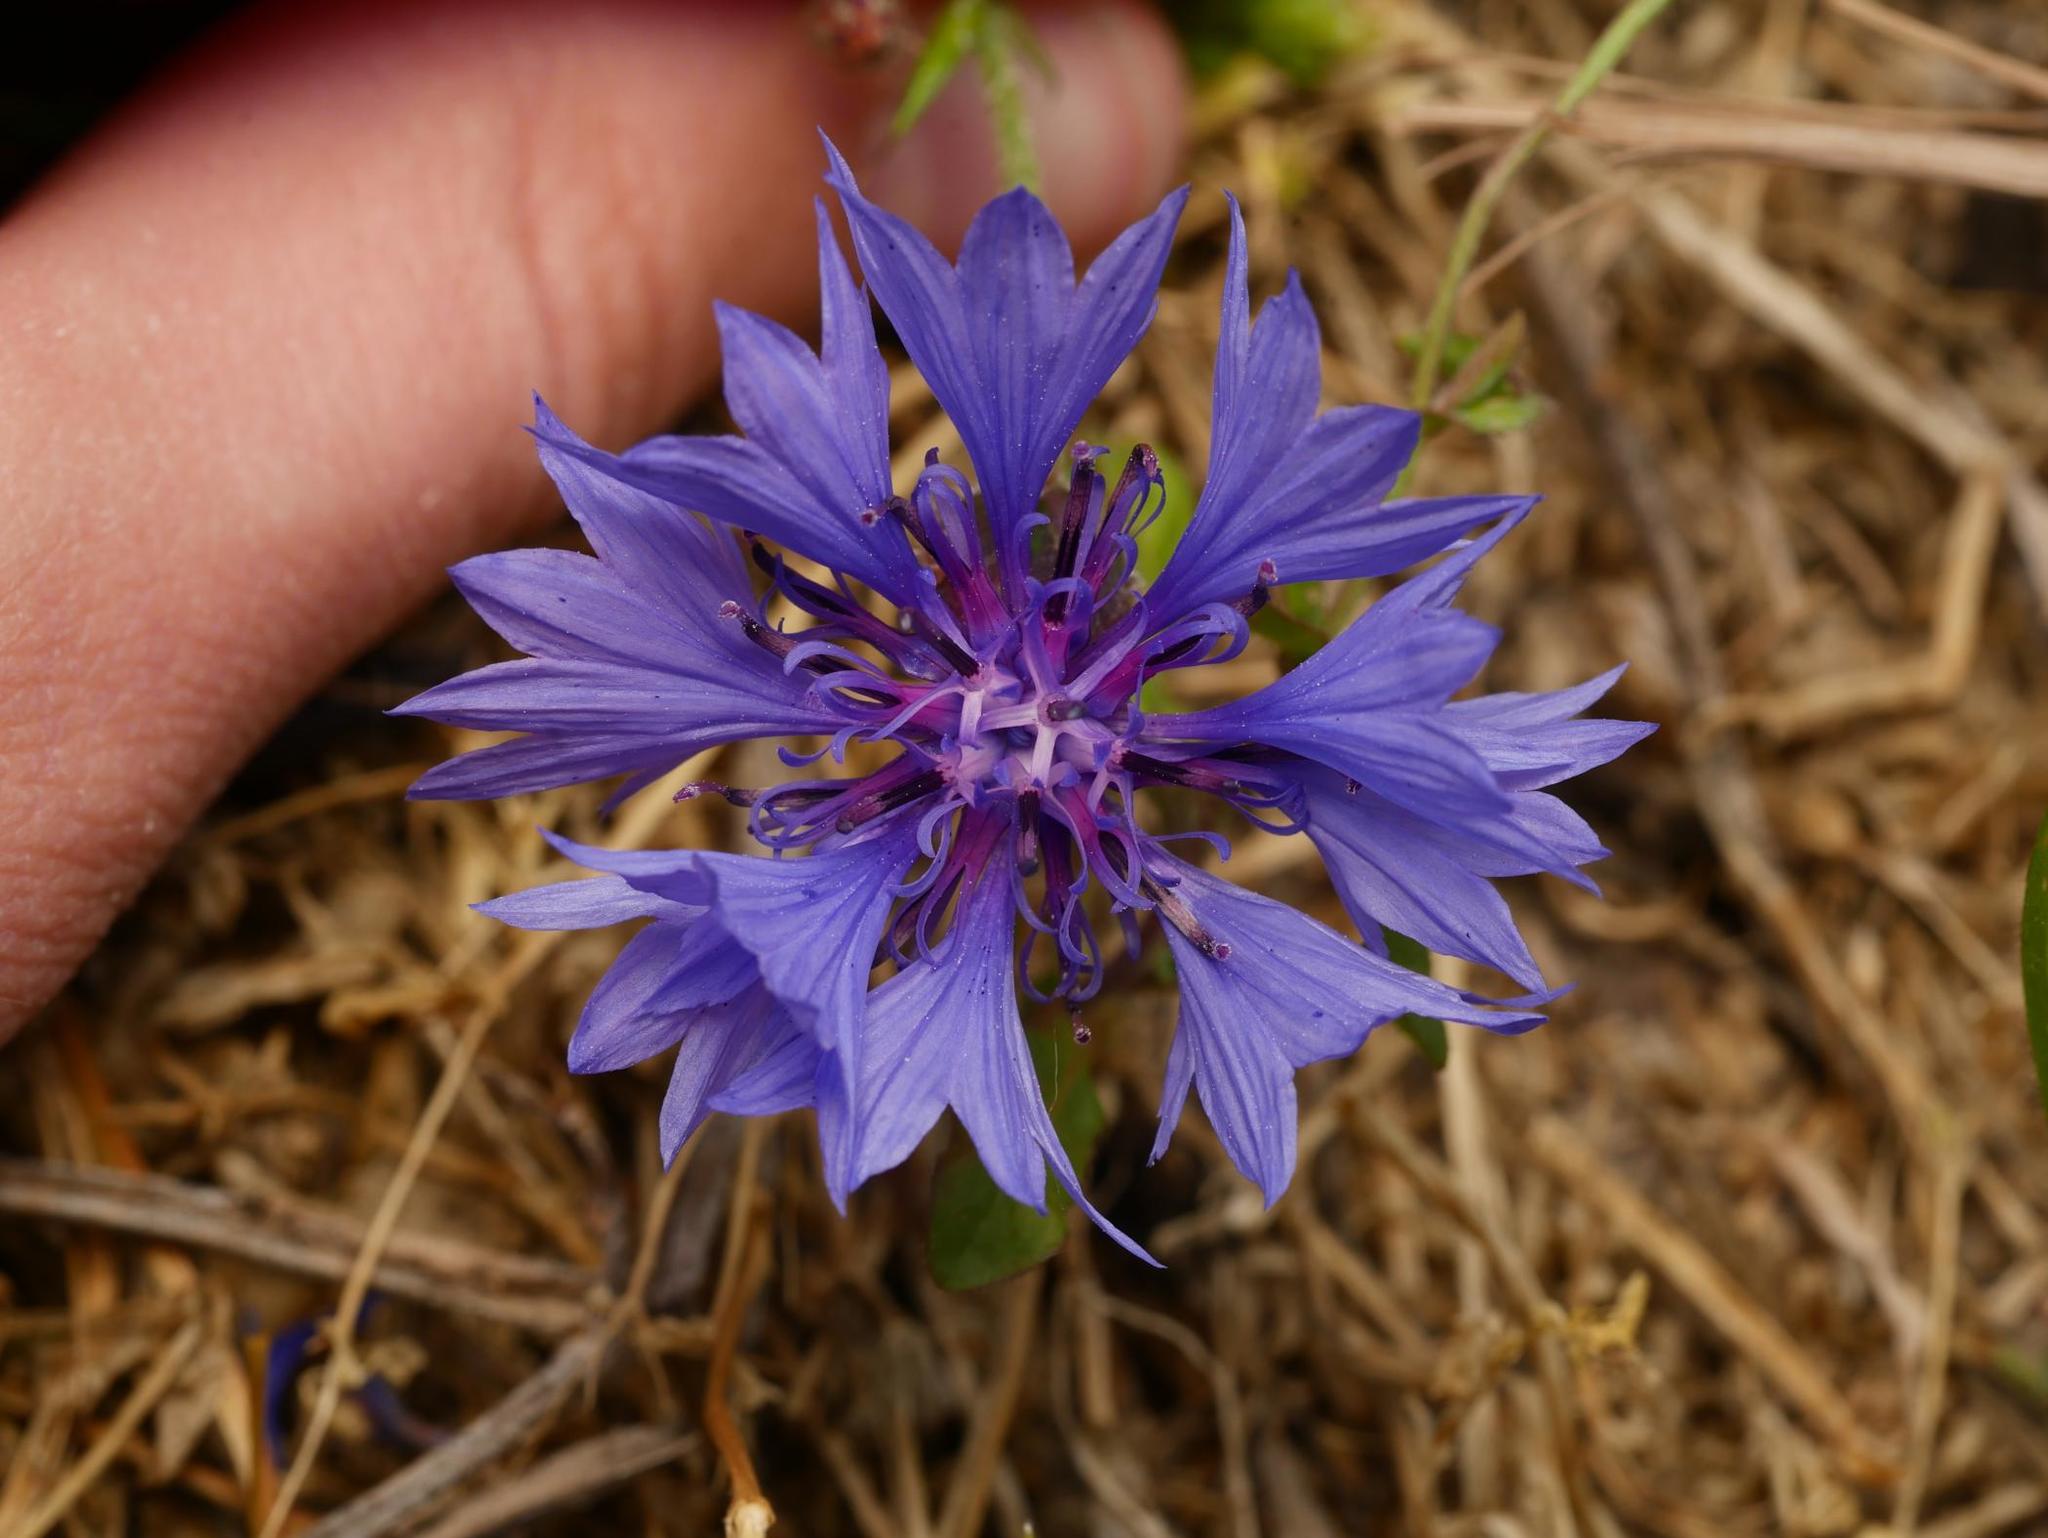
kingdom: Plantae
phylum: Tracheophyta
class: Magnoliopsida
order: Asterales
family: Asteraceae
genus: Centaurea
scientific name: Centaurea cyanus
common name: Cornflower
